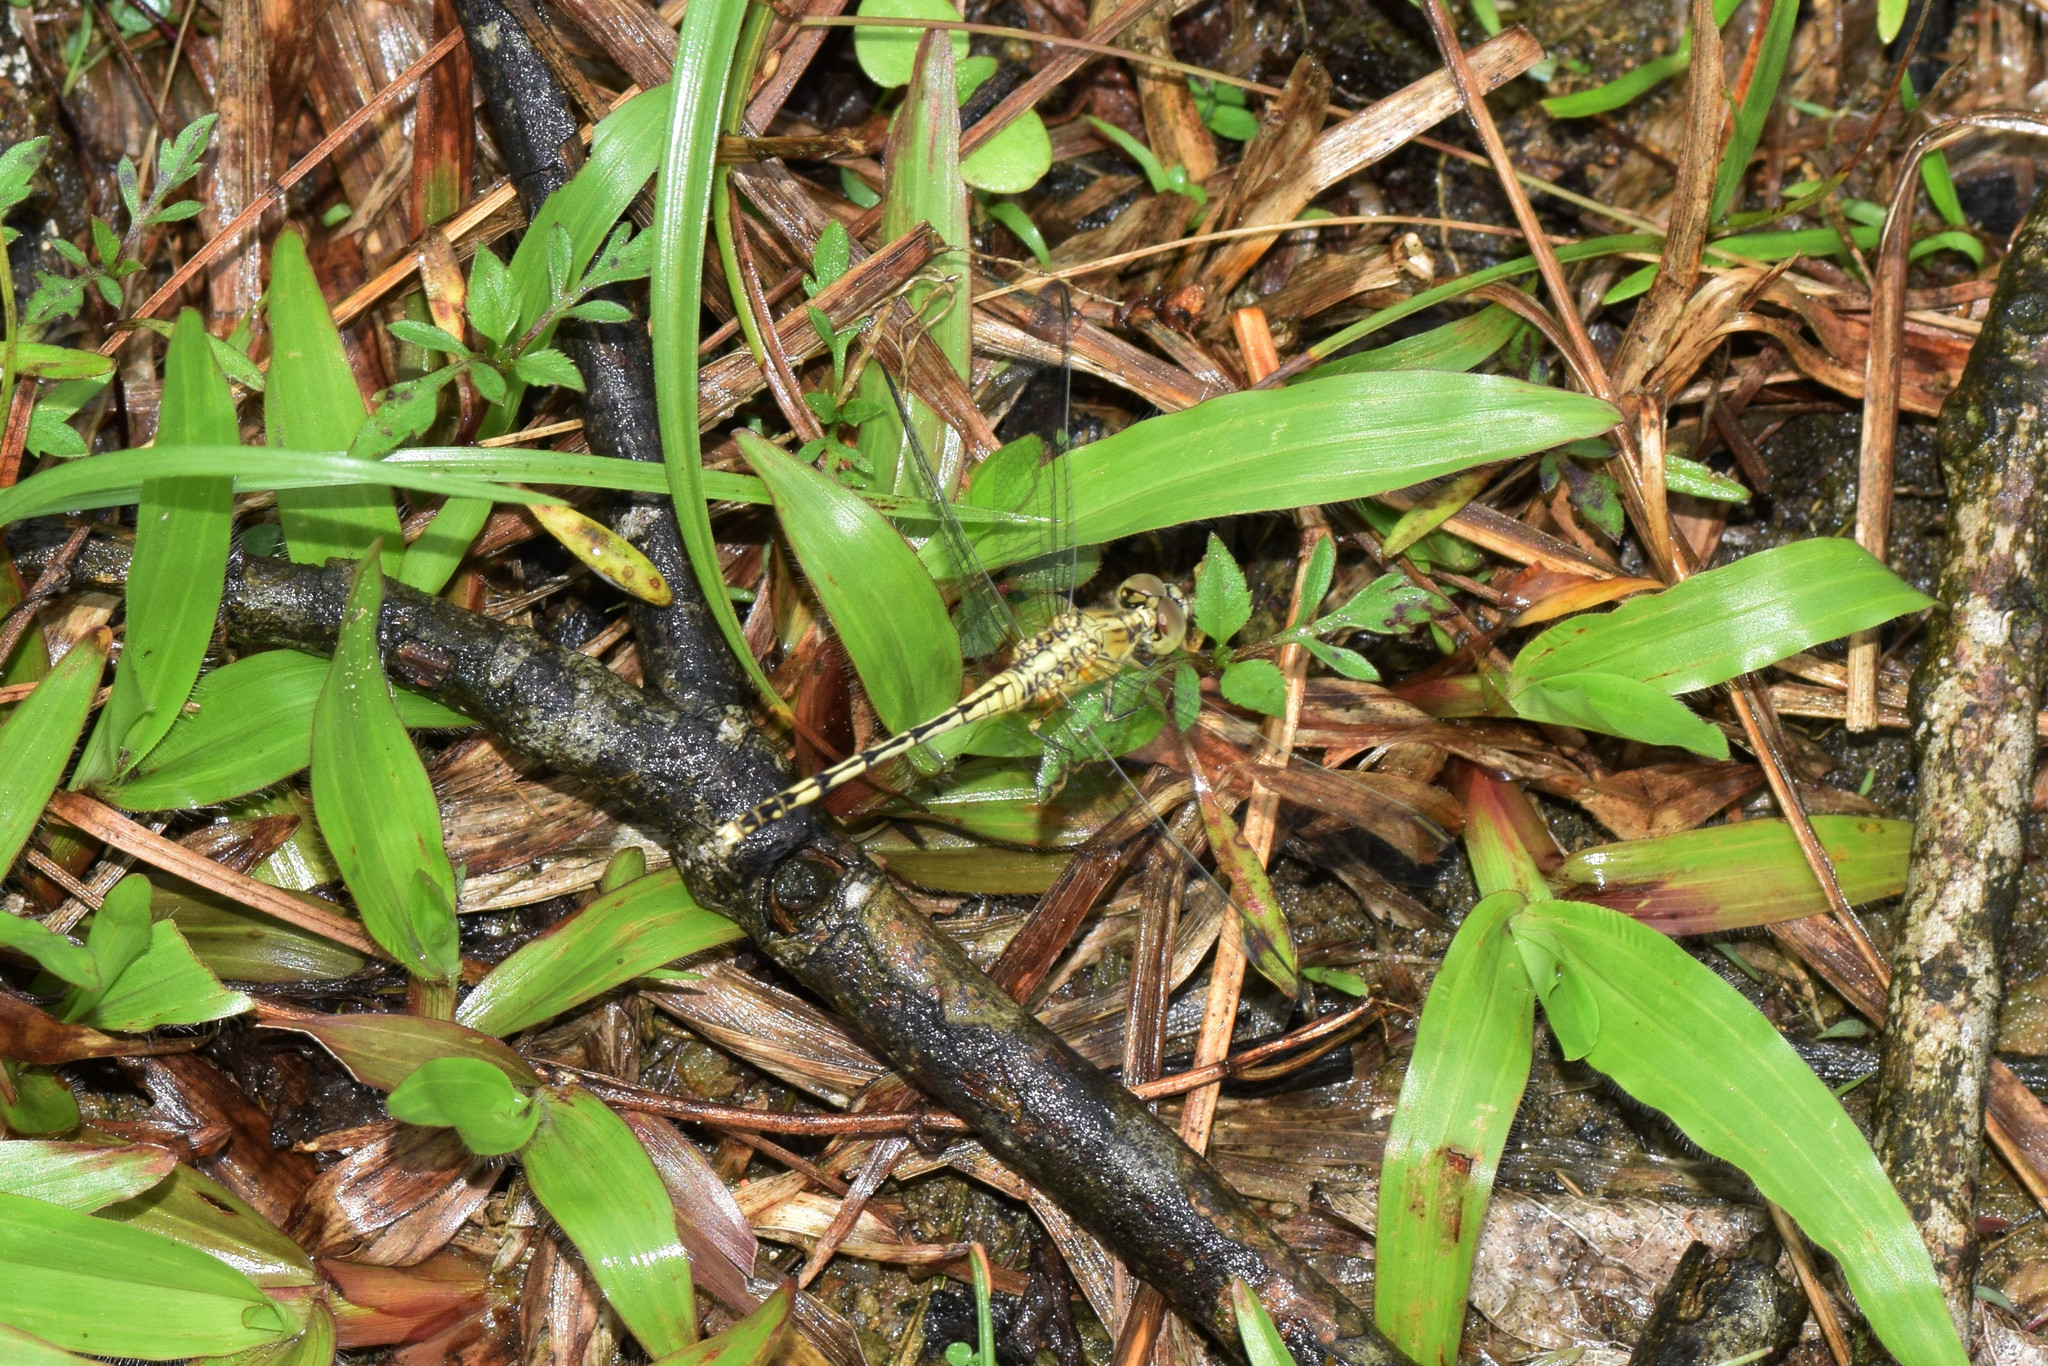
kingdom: Animalia
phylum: Arthropoda
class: Insecta
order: Odonata
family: Libellulidae
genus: Diplacodes
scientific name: Diplacodes trivialis
